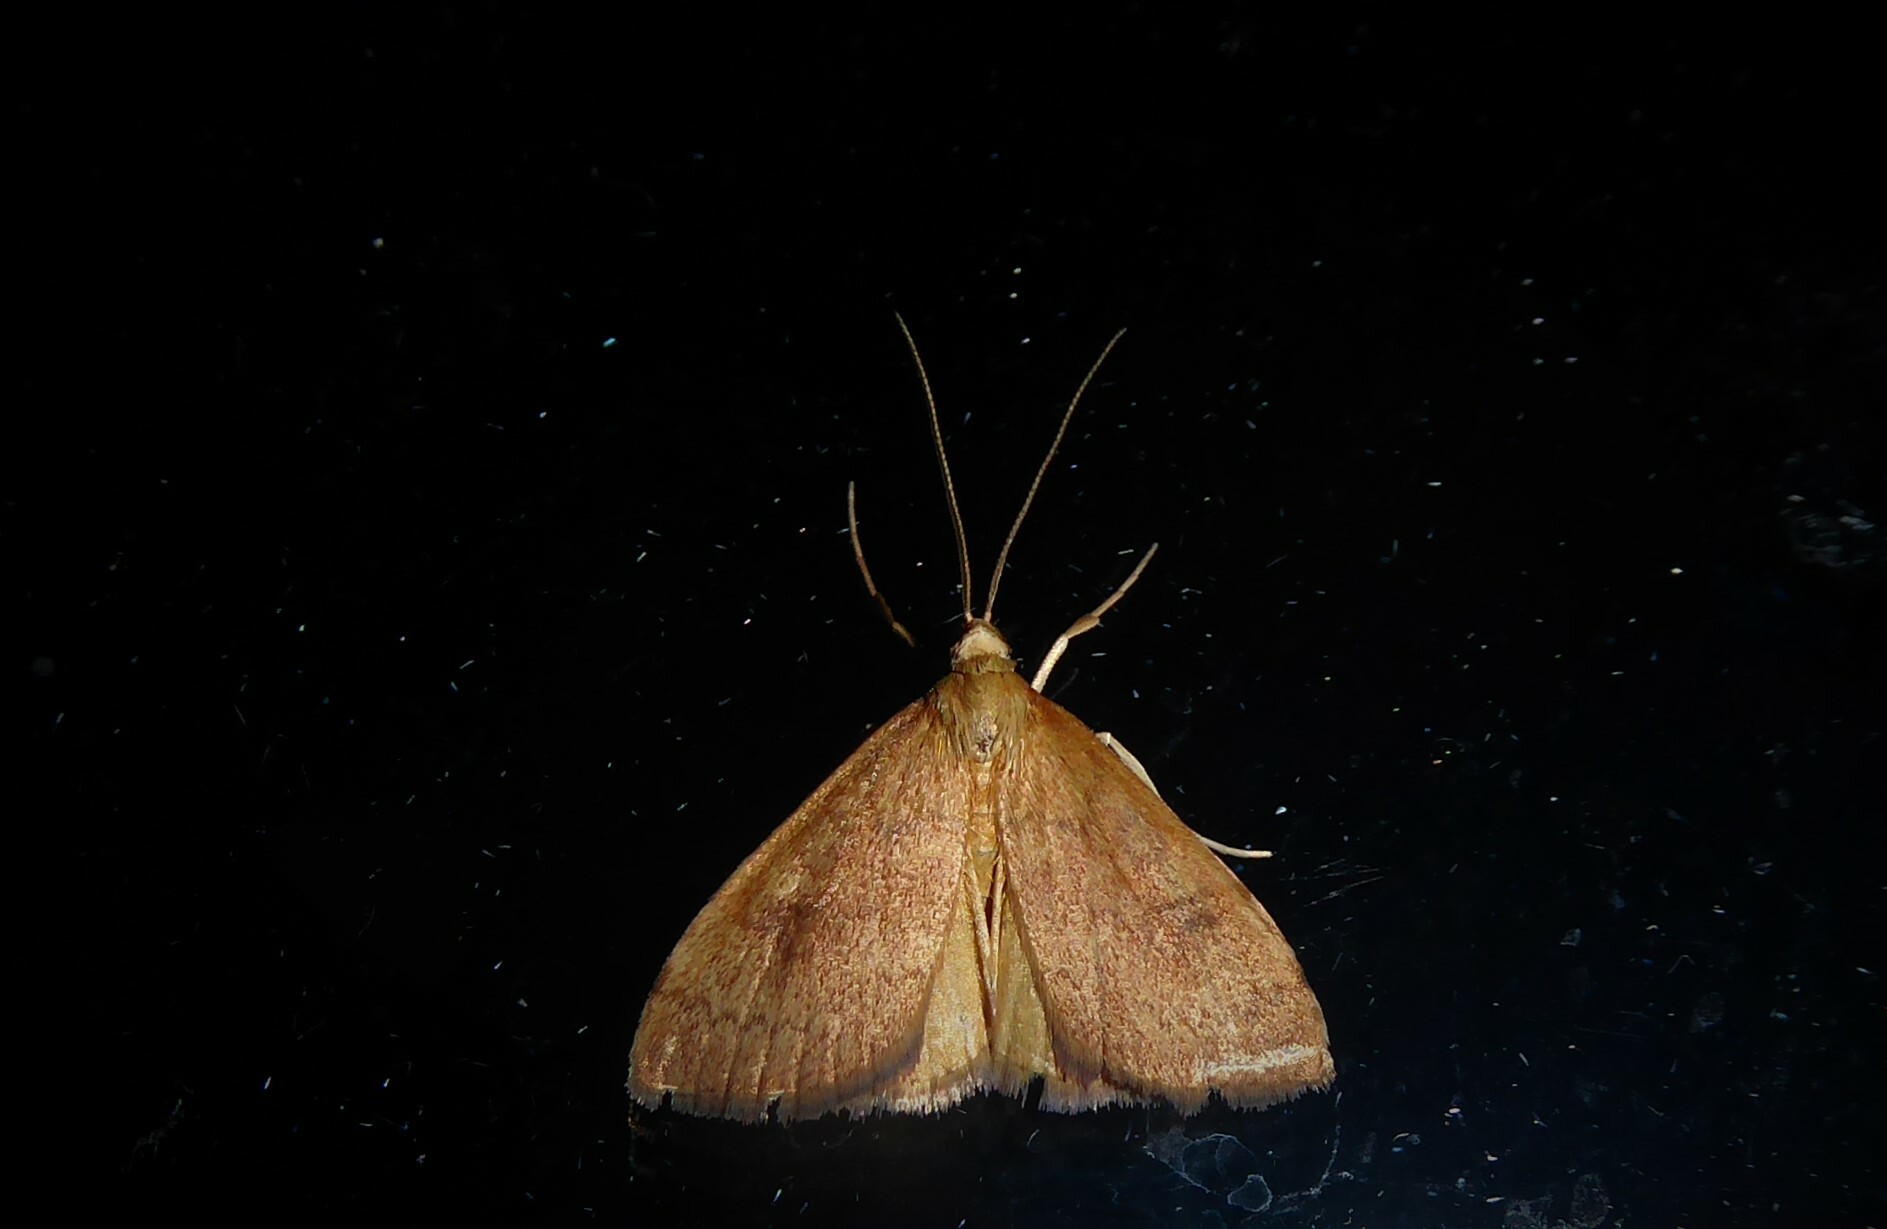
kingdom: Animalia
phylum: Arthropoda
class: Insecta
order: Lepidoptera
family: Crambidae
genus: Udea
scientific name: Udea Mnesictena flavidalis
